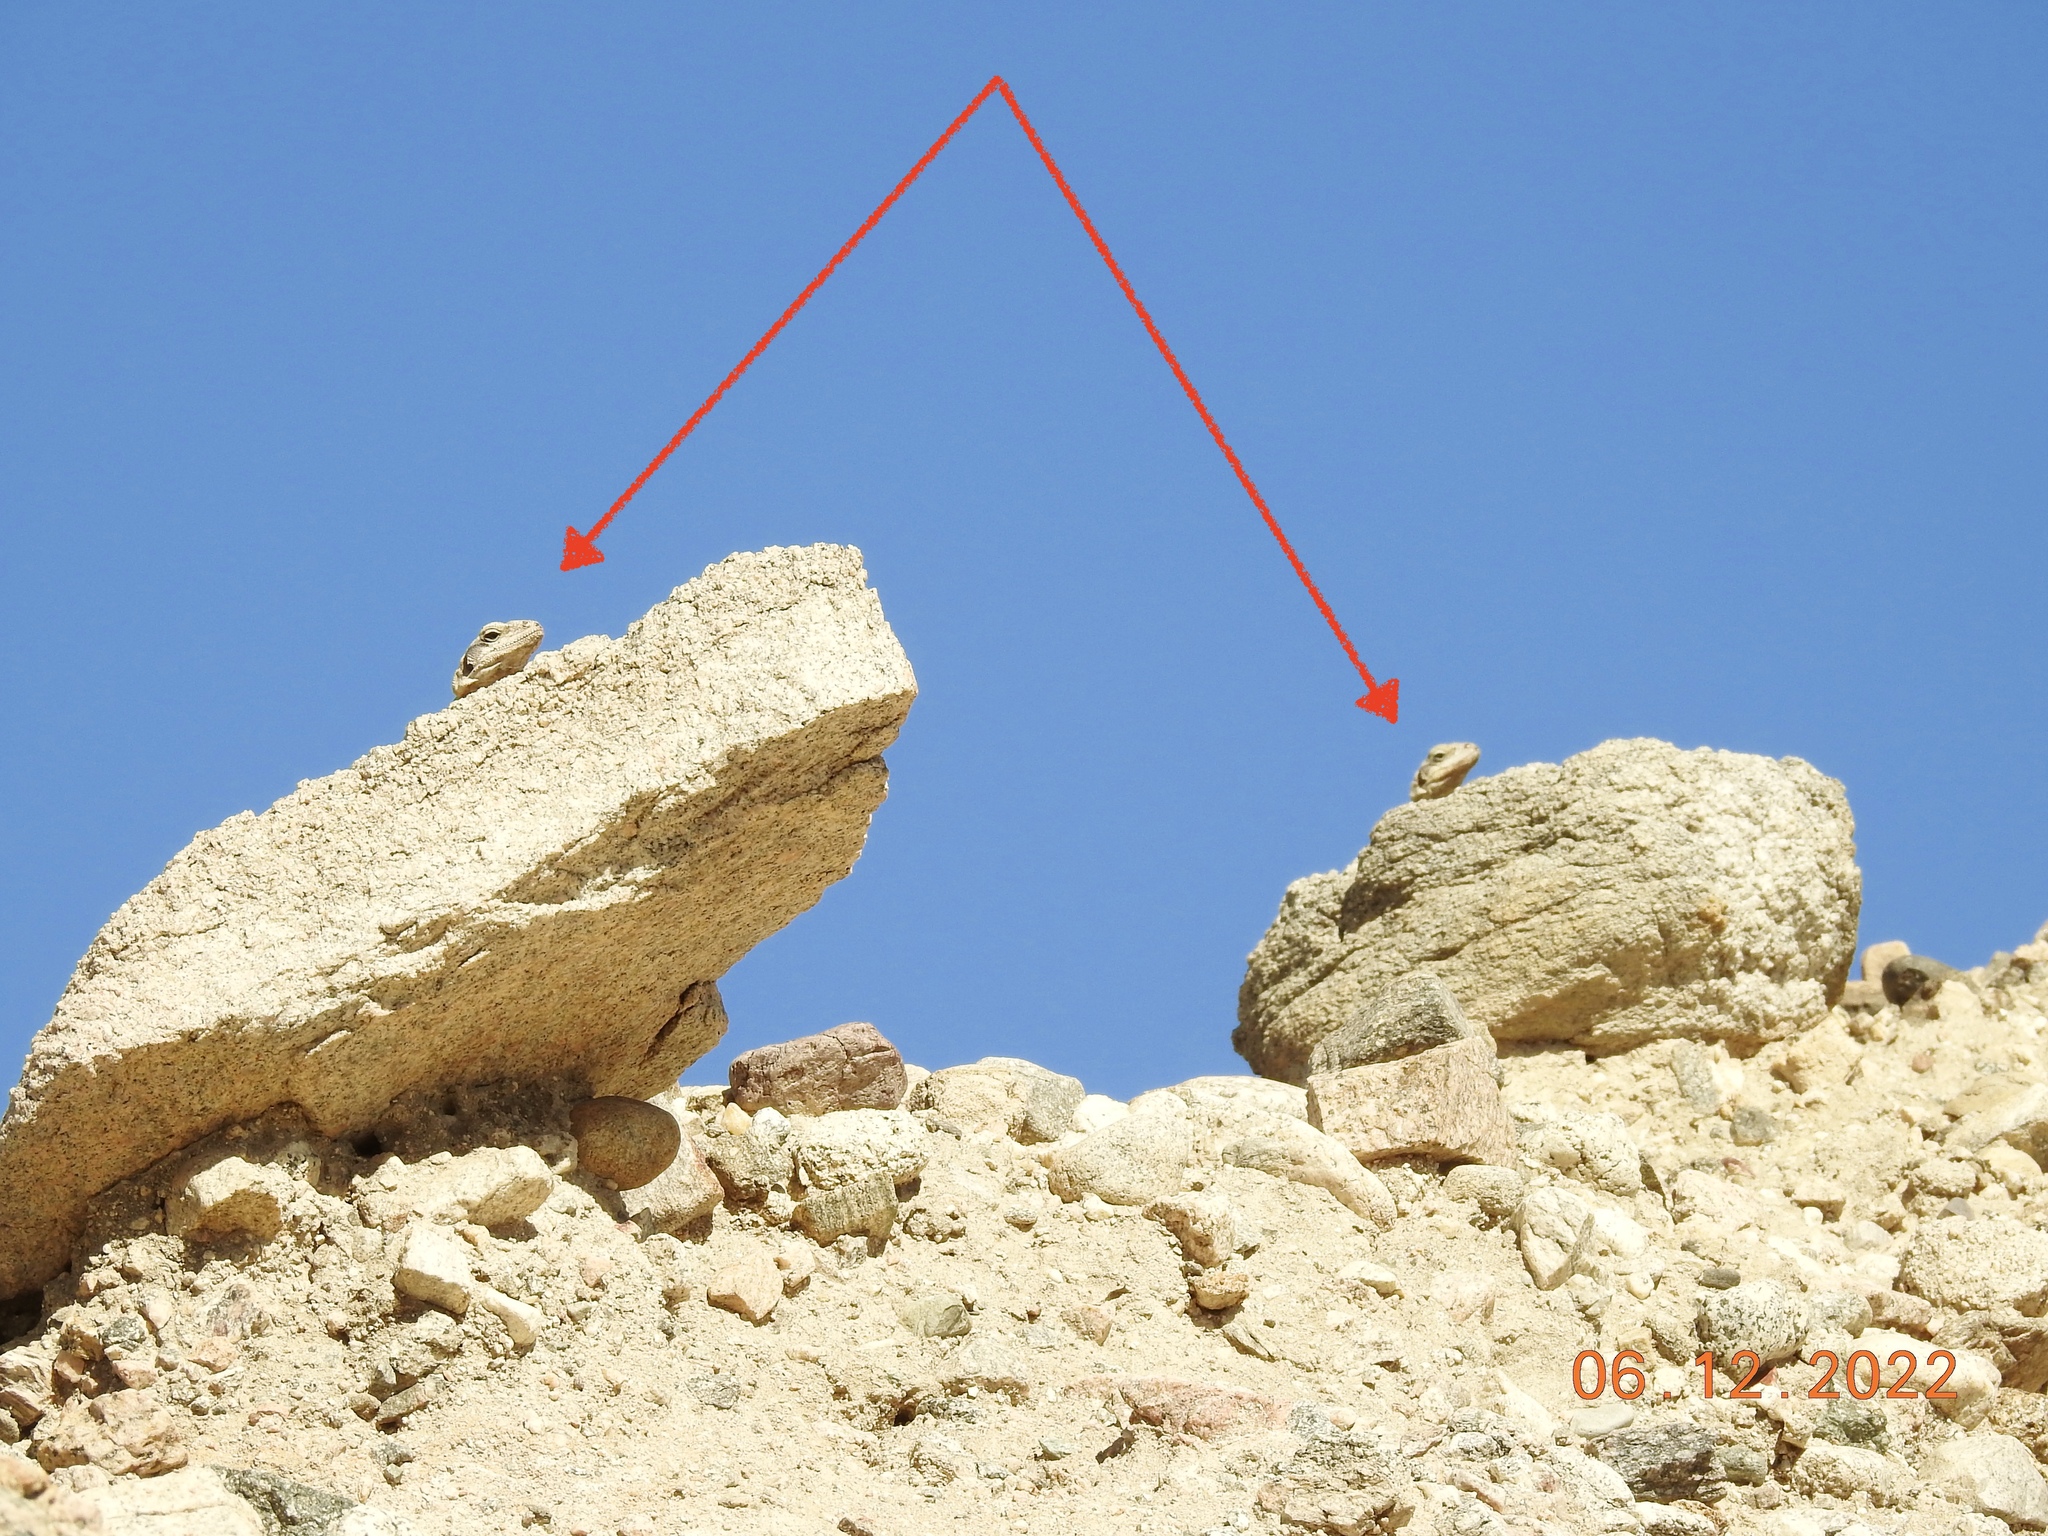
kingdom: Animalia
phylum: Chordata
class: Squamata
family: Iguanidae
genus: Sauromalus
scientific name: Sauromalus ater
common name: Northern chuckwalla
